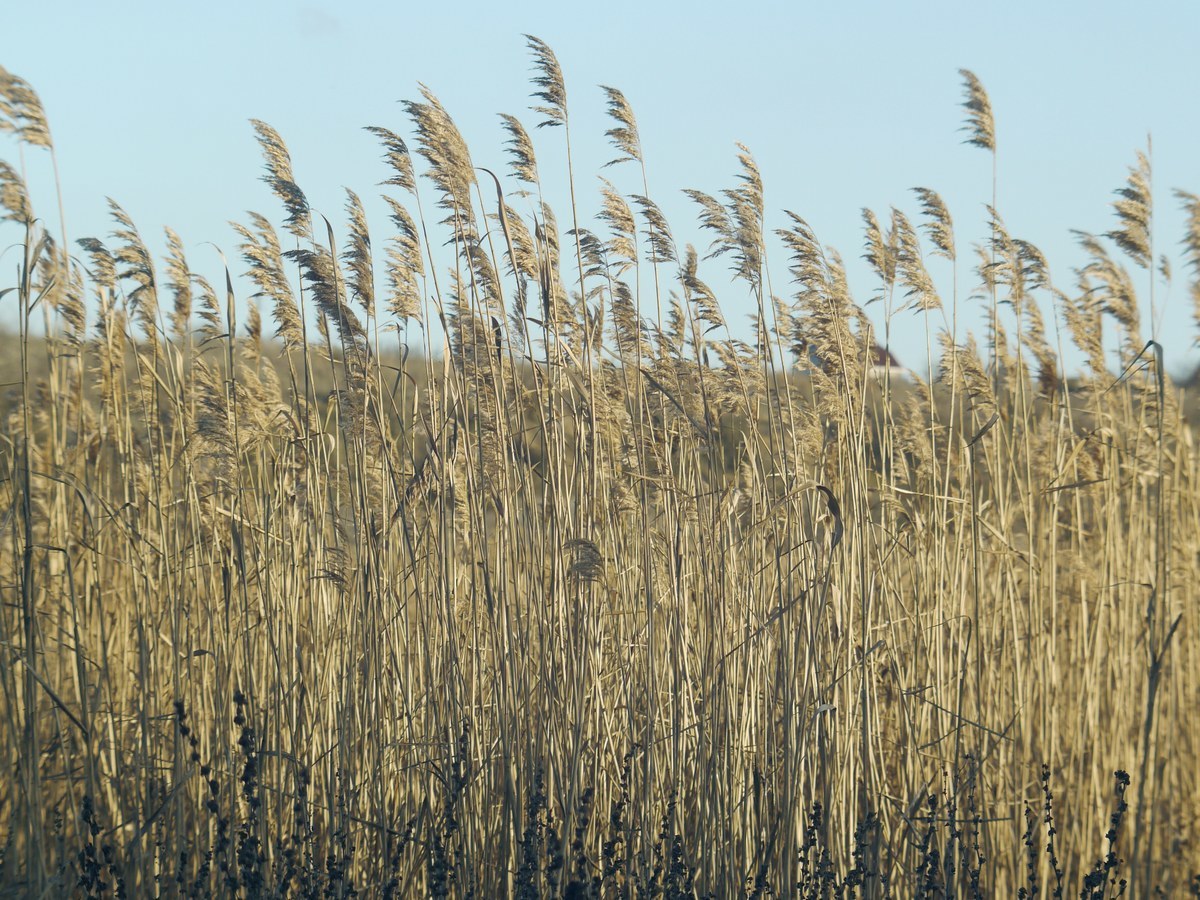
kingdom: Plantae
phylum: Tracheophyta
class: Liliopsida
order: Poales
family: Poaceae
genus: Phragmites
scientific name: Phragmites australis
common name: Common reed
